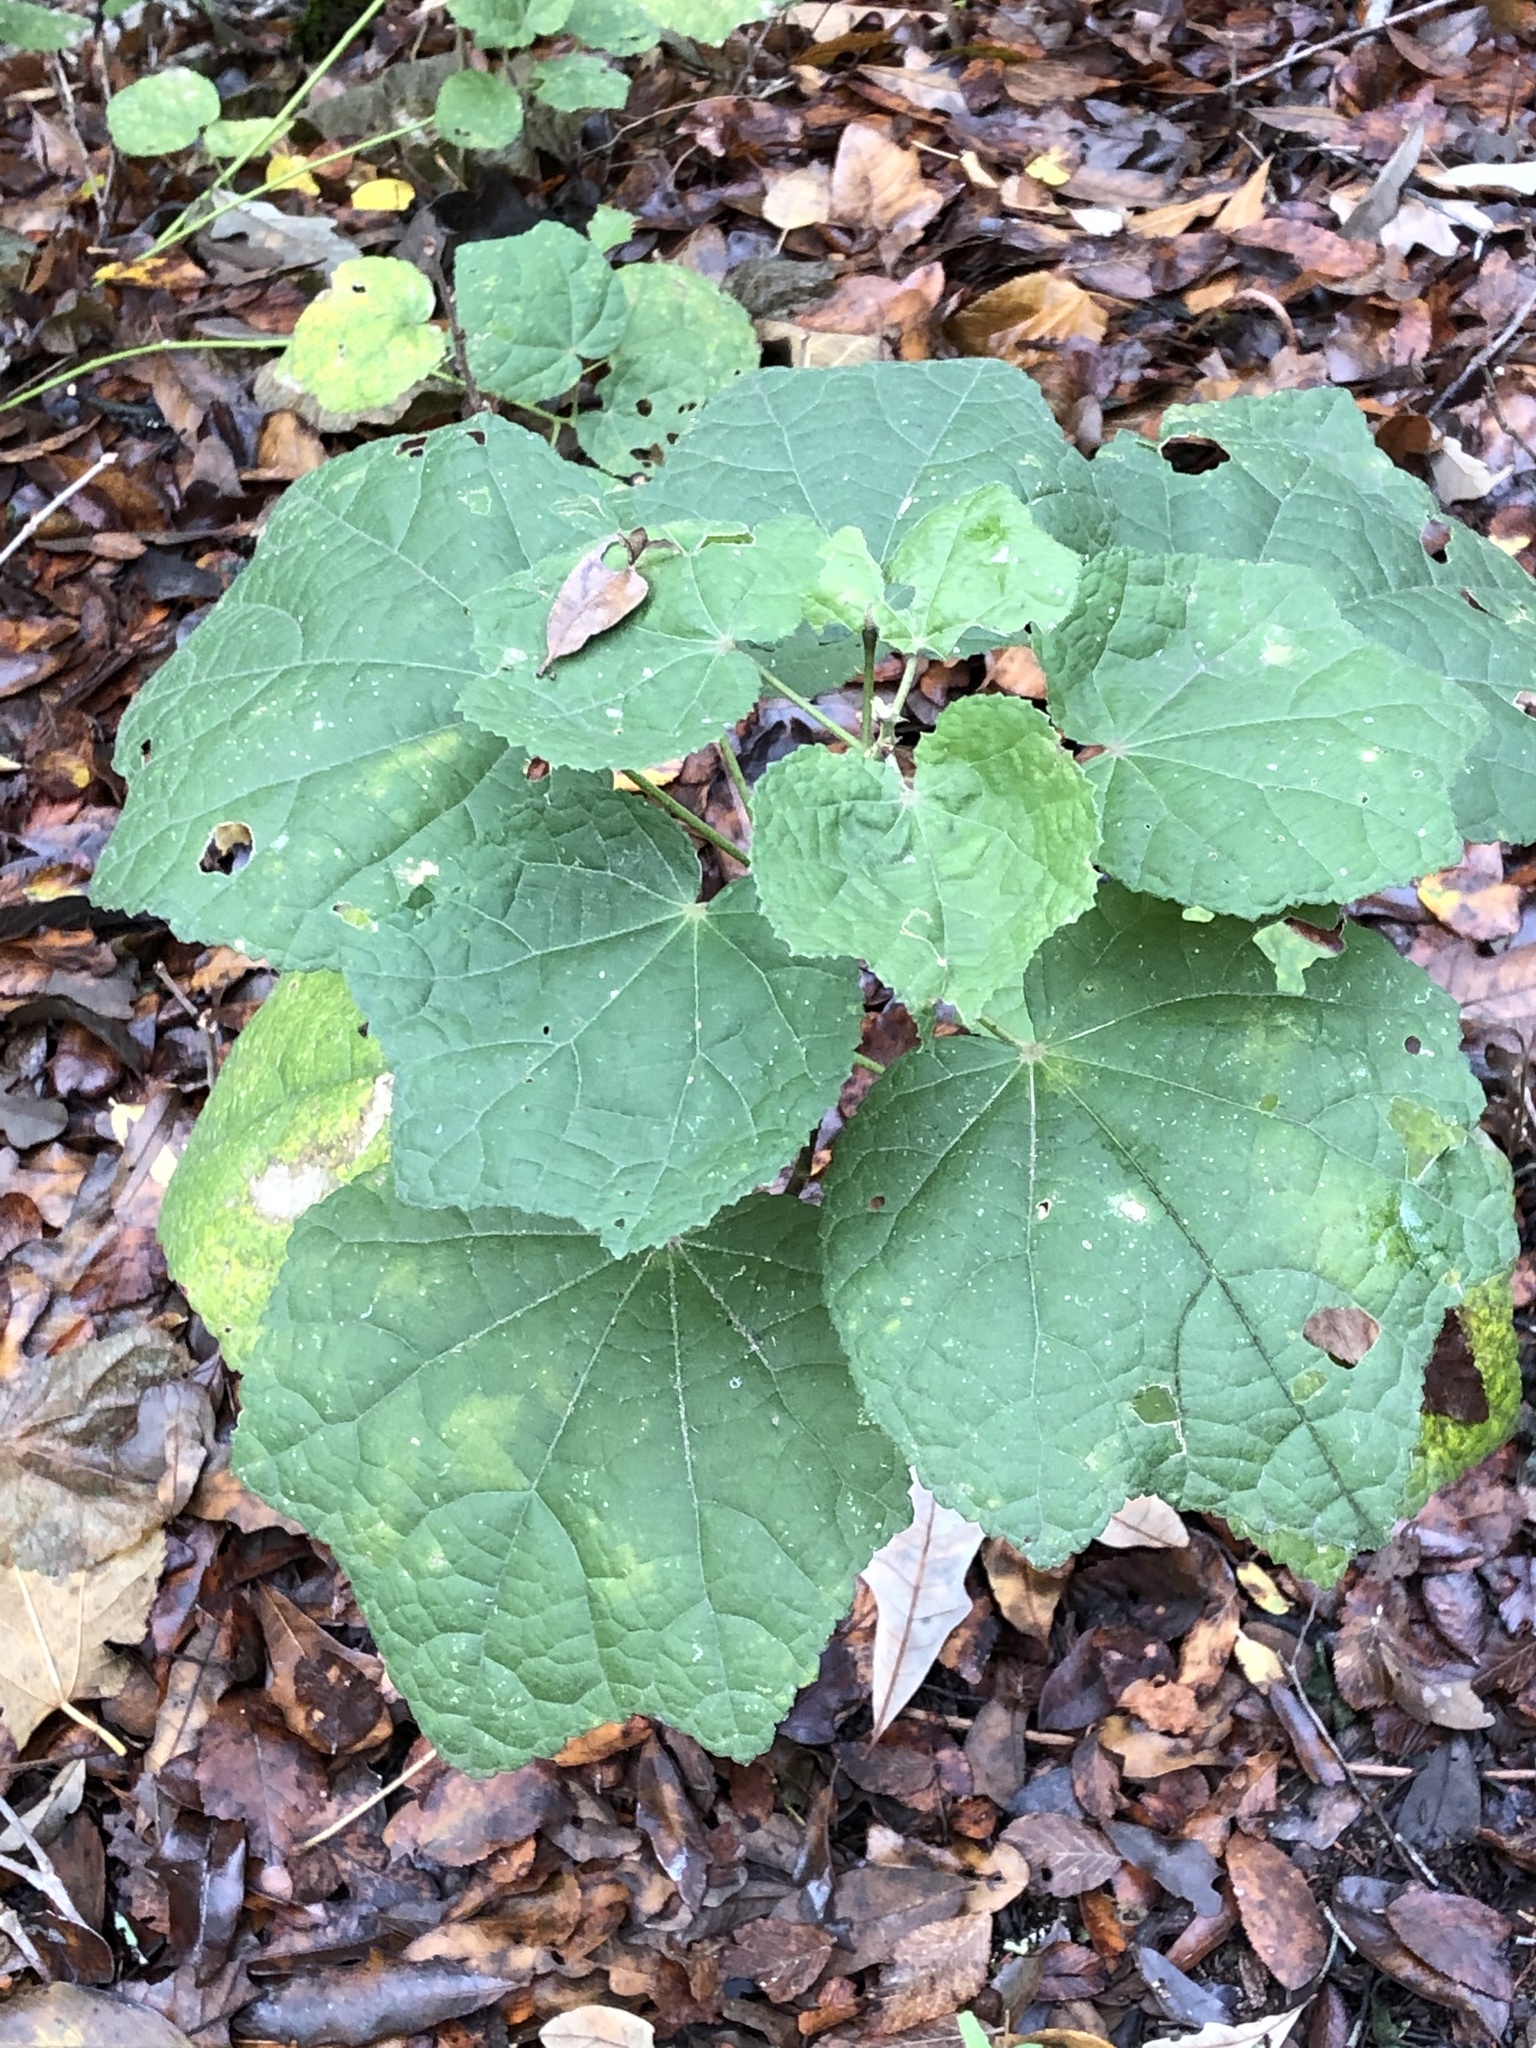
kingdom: Plantae
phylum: Tracheophyta
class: Magnoliopsida
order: Malvales
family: Malvaceae
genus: Malvaviscus
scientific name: Malvaviscus arboreus
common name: Wax mallow
